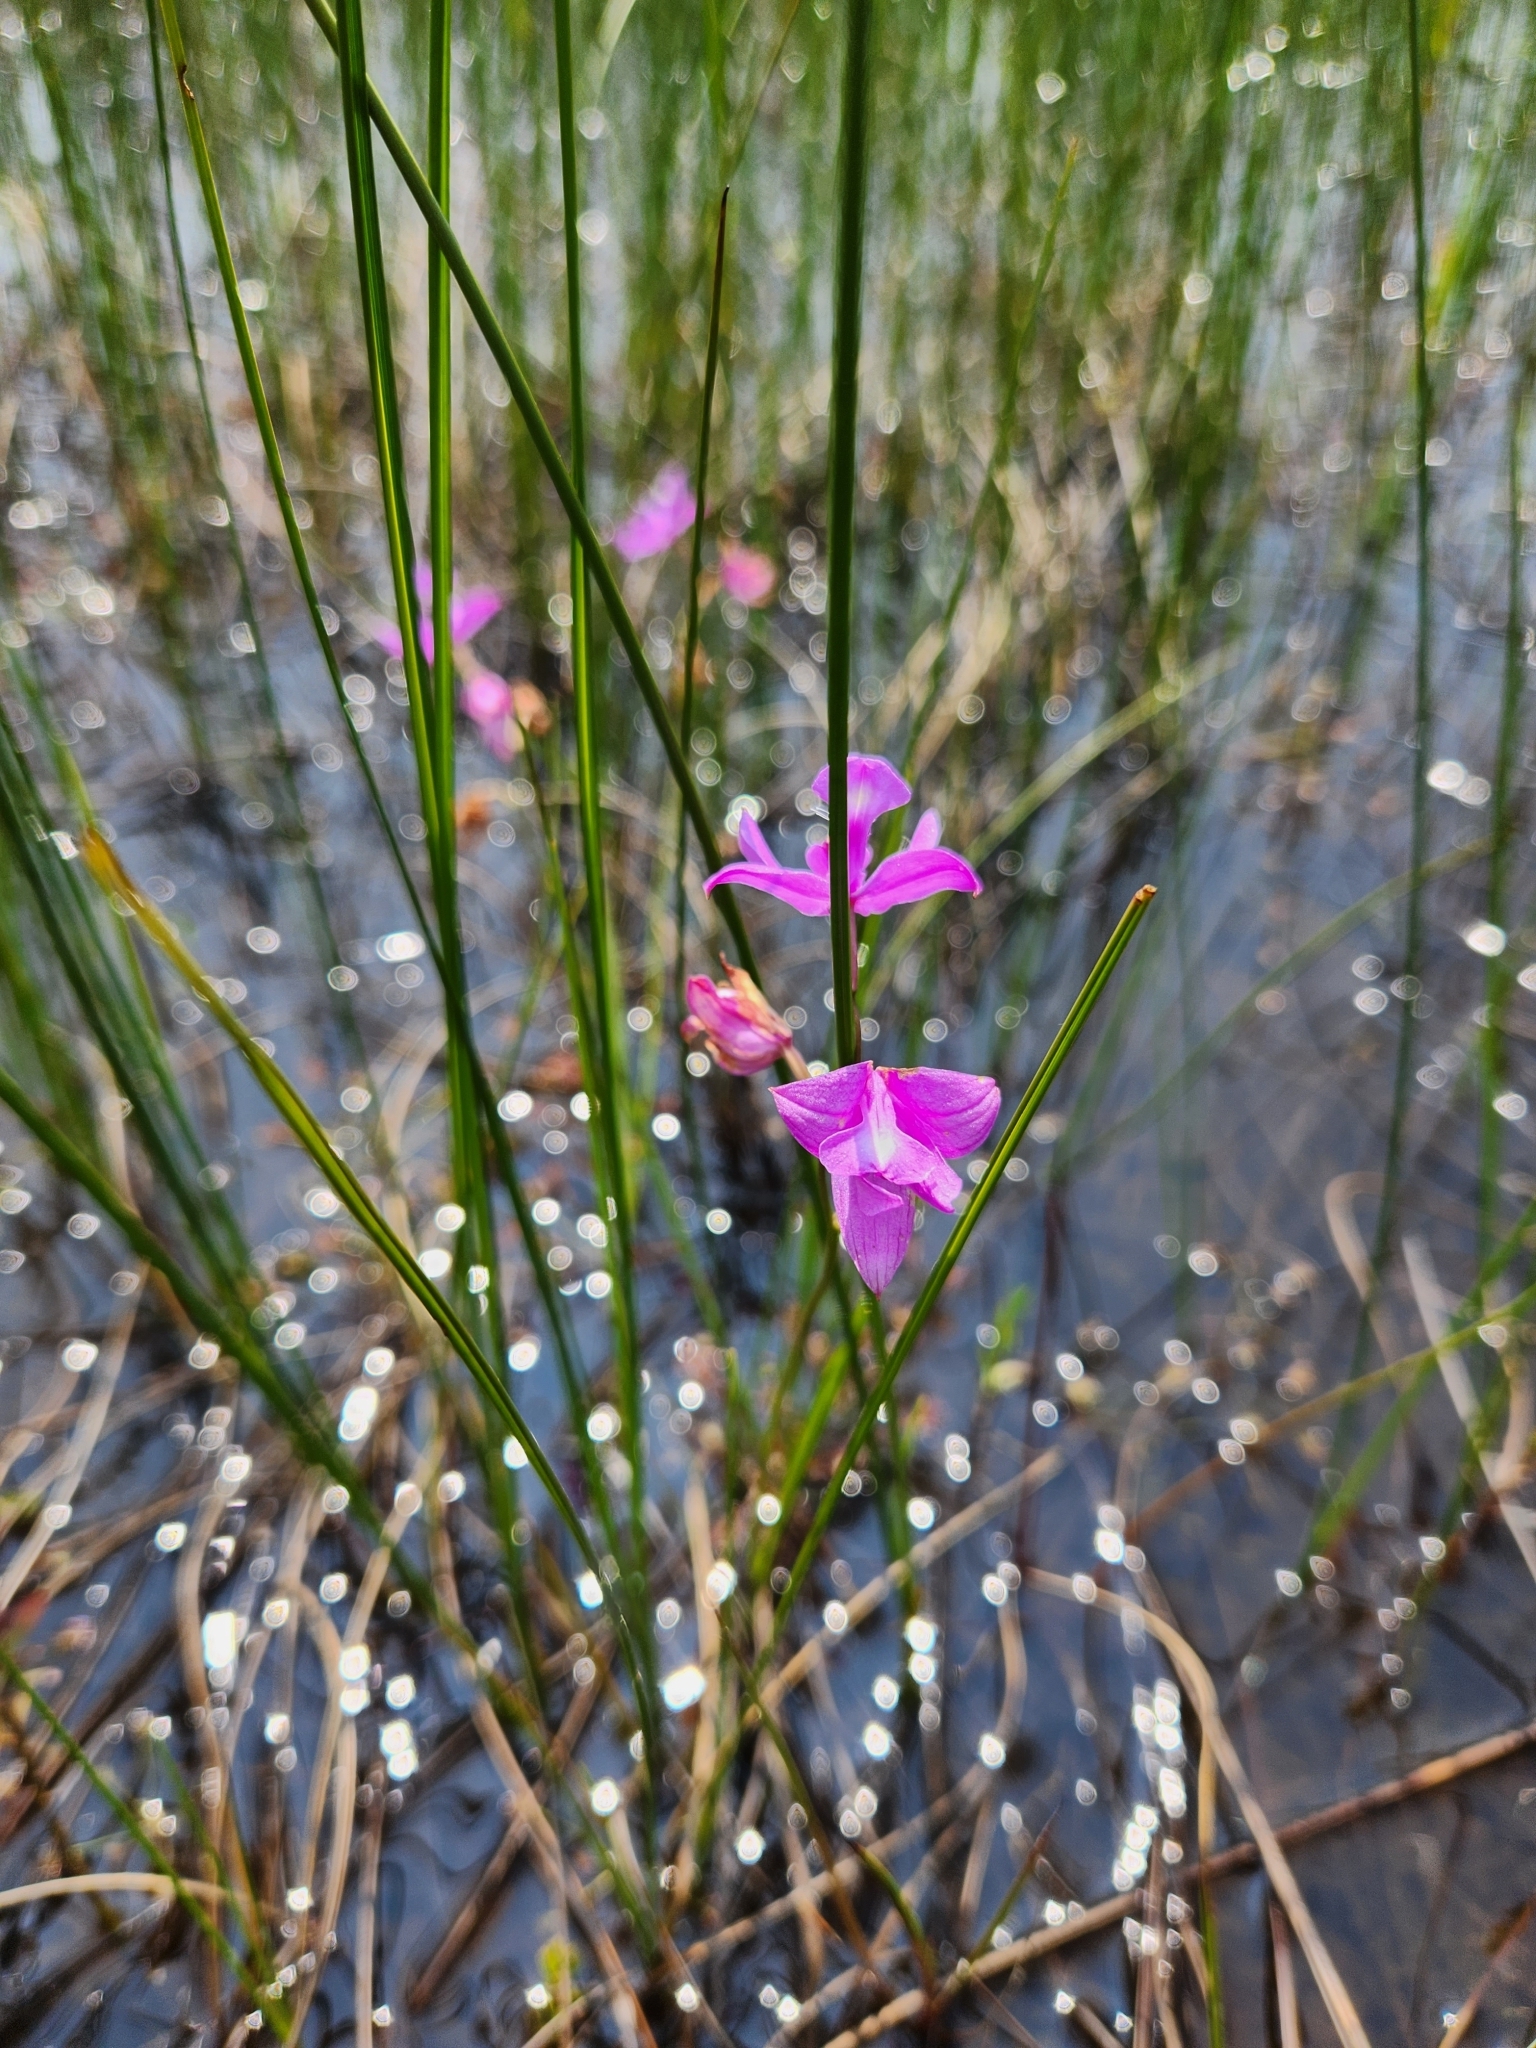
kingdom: Plantae
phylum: Tracheophyta
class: Liliopsida
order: Asparagales
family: Orchidaceae
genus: Calopogon
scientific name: Calopogon tuberosus
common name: Grass-pink
